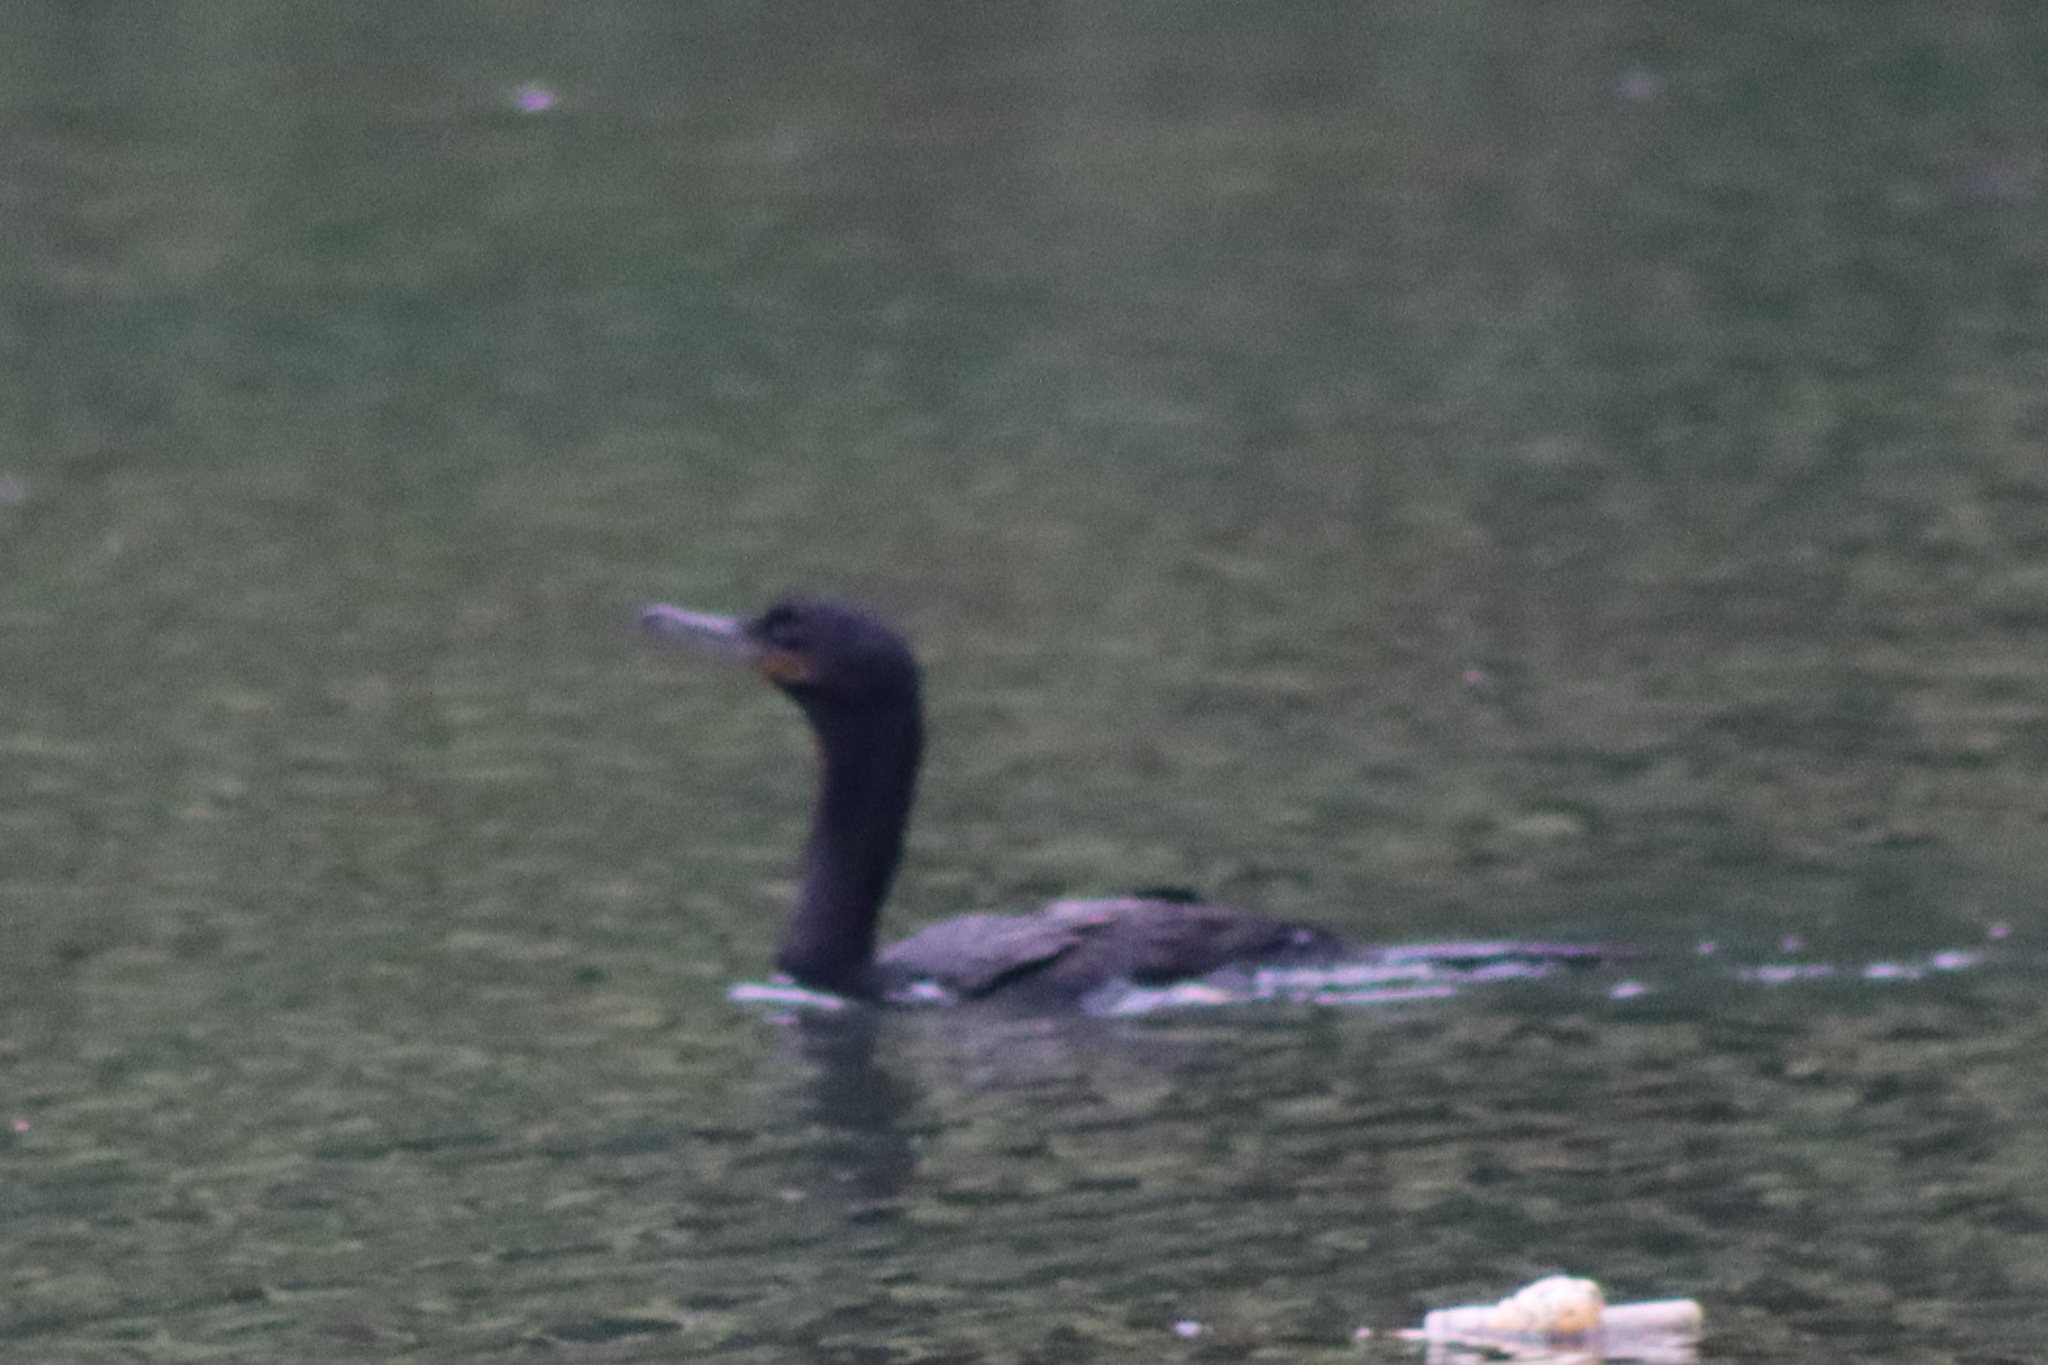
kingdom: Animalia
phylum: Chordata
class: Aves
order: Suliformes
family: Phalacrocoracidae
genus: Phalacrocorax
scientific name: Phalacrocorax brasilianus
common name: Neotropic cormorant
